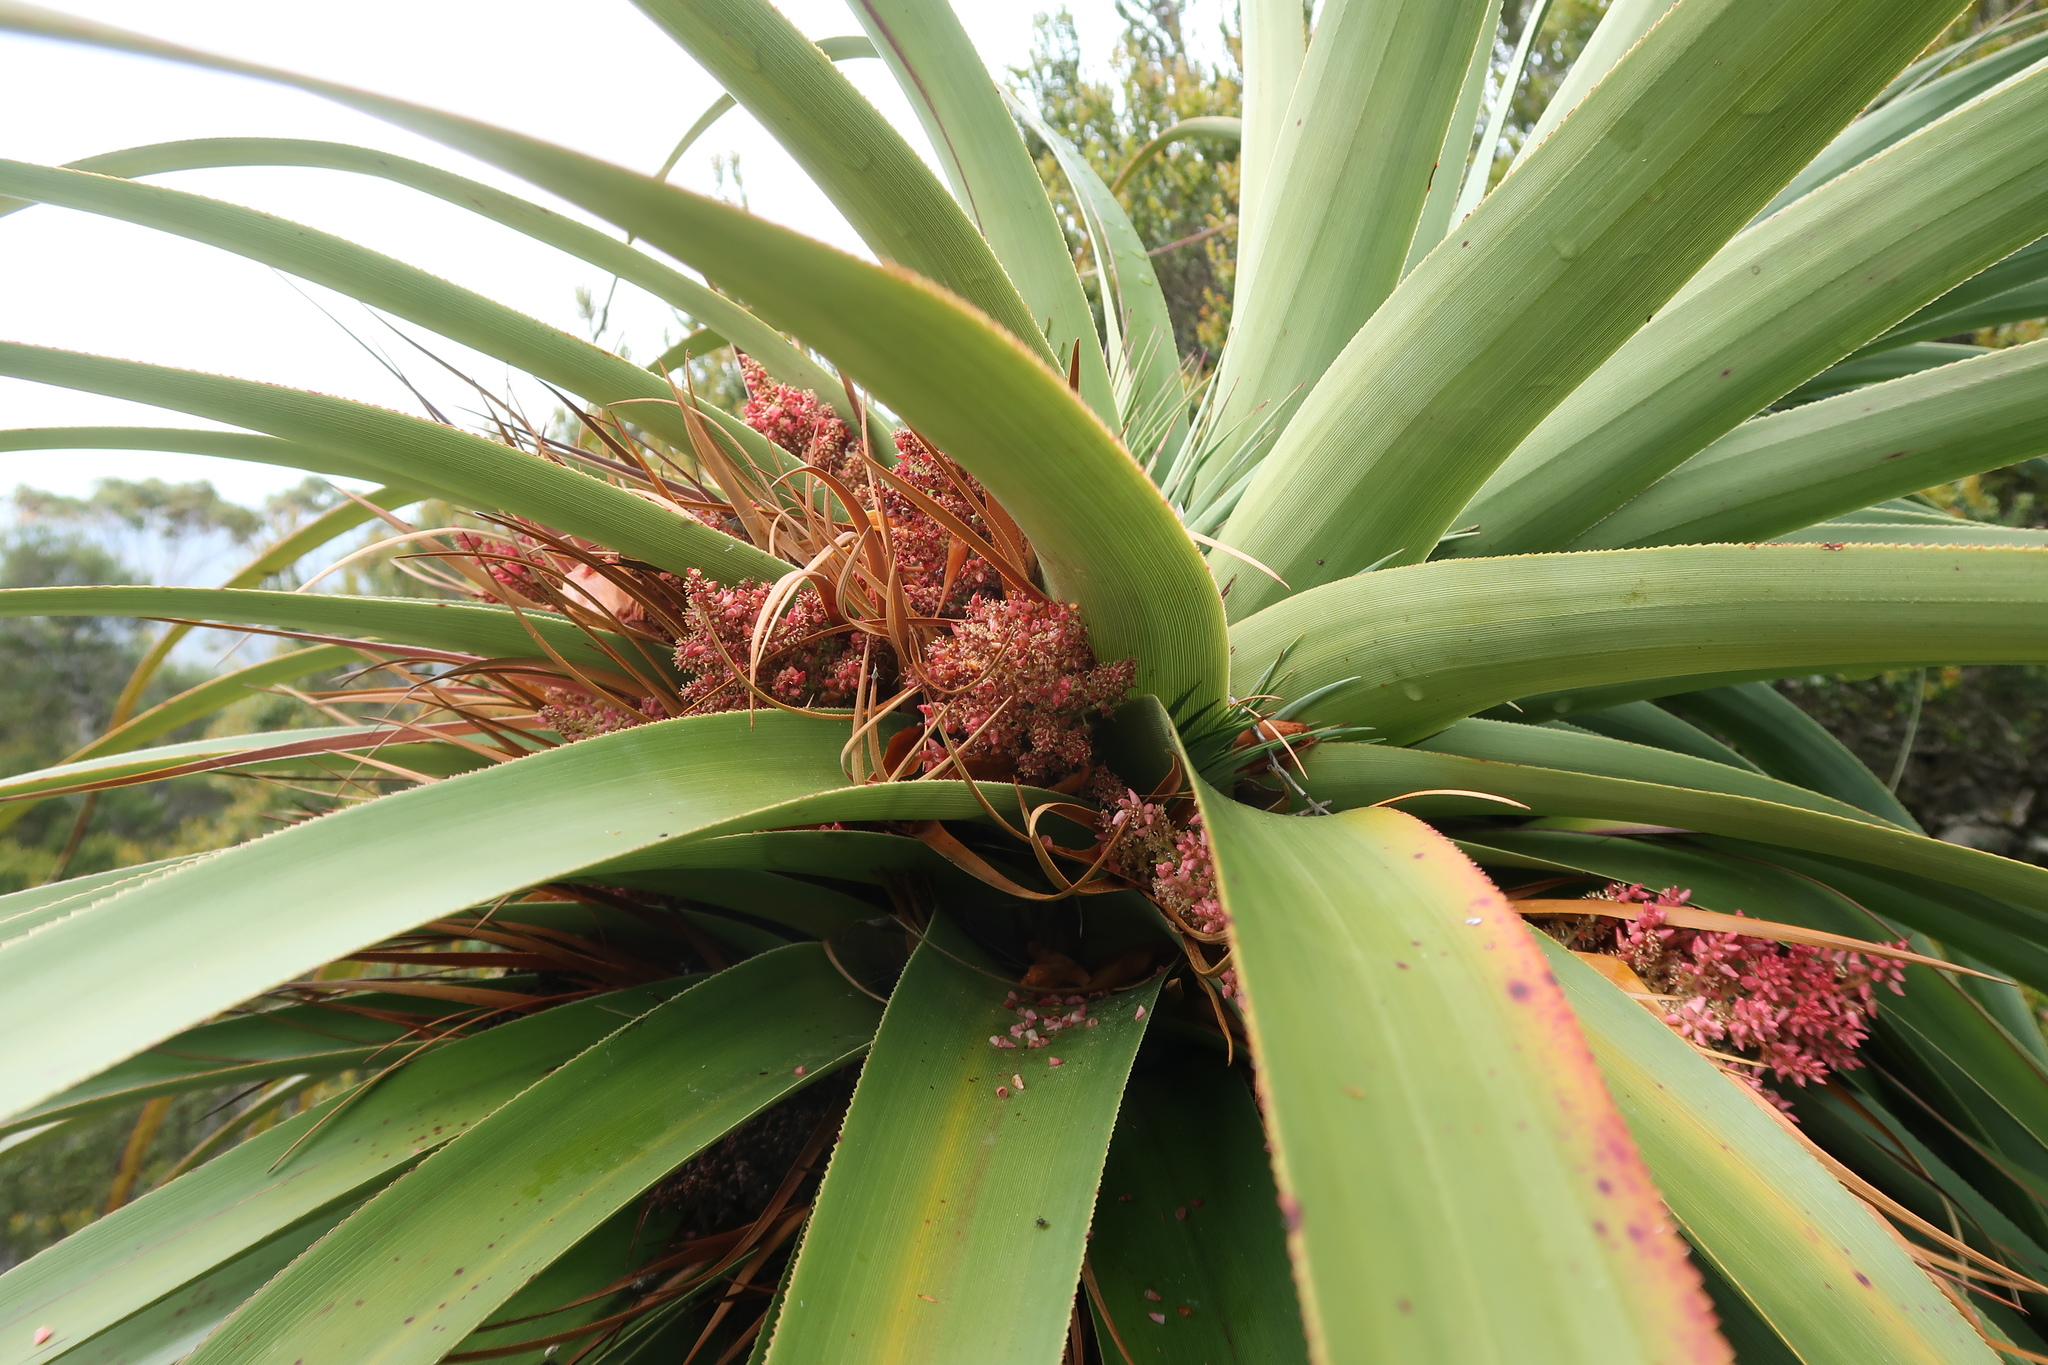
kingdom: Plantae
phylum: Tracheophyta
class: Magnoliopsida
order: Ericales
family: Ericaceae
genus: Dracophyllum
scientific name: Dracophyllum pandanifolium
